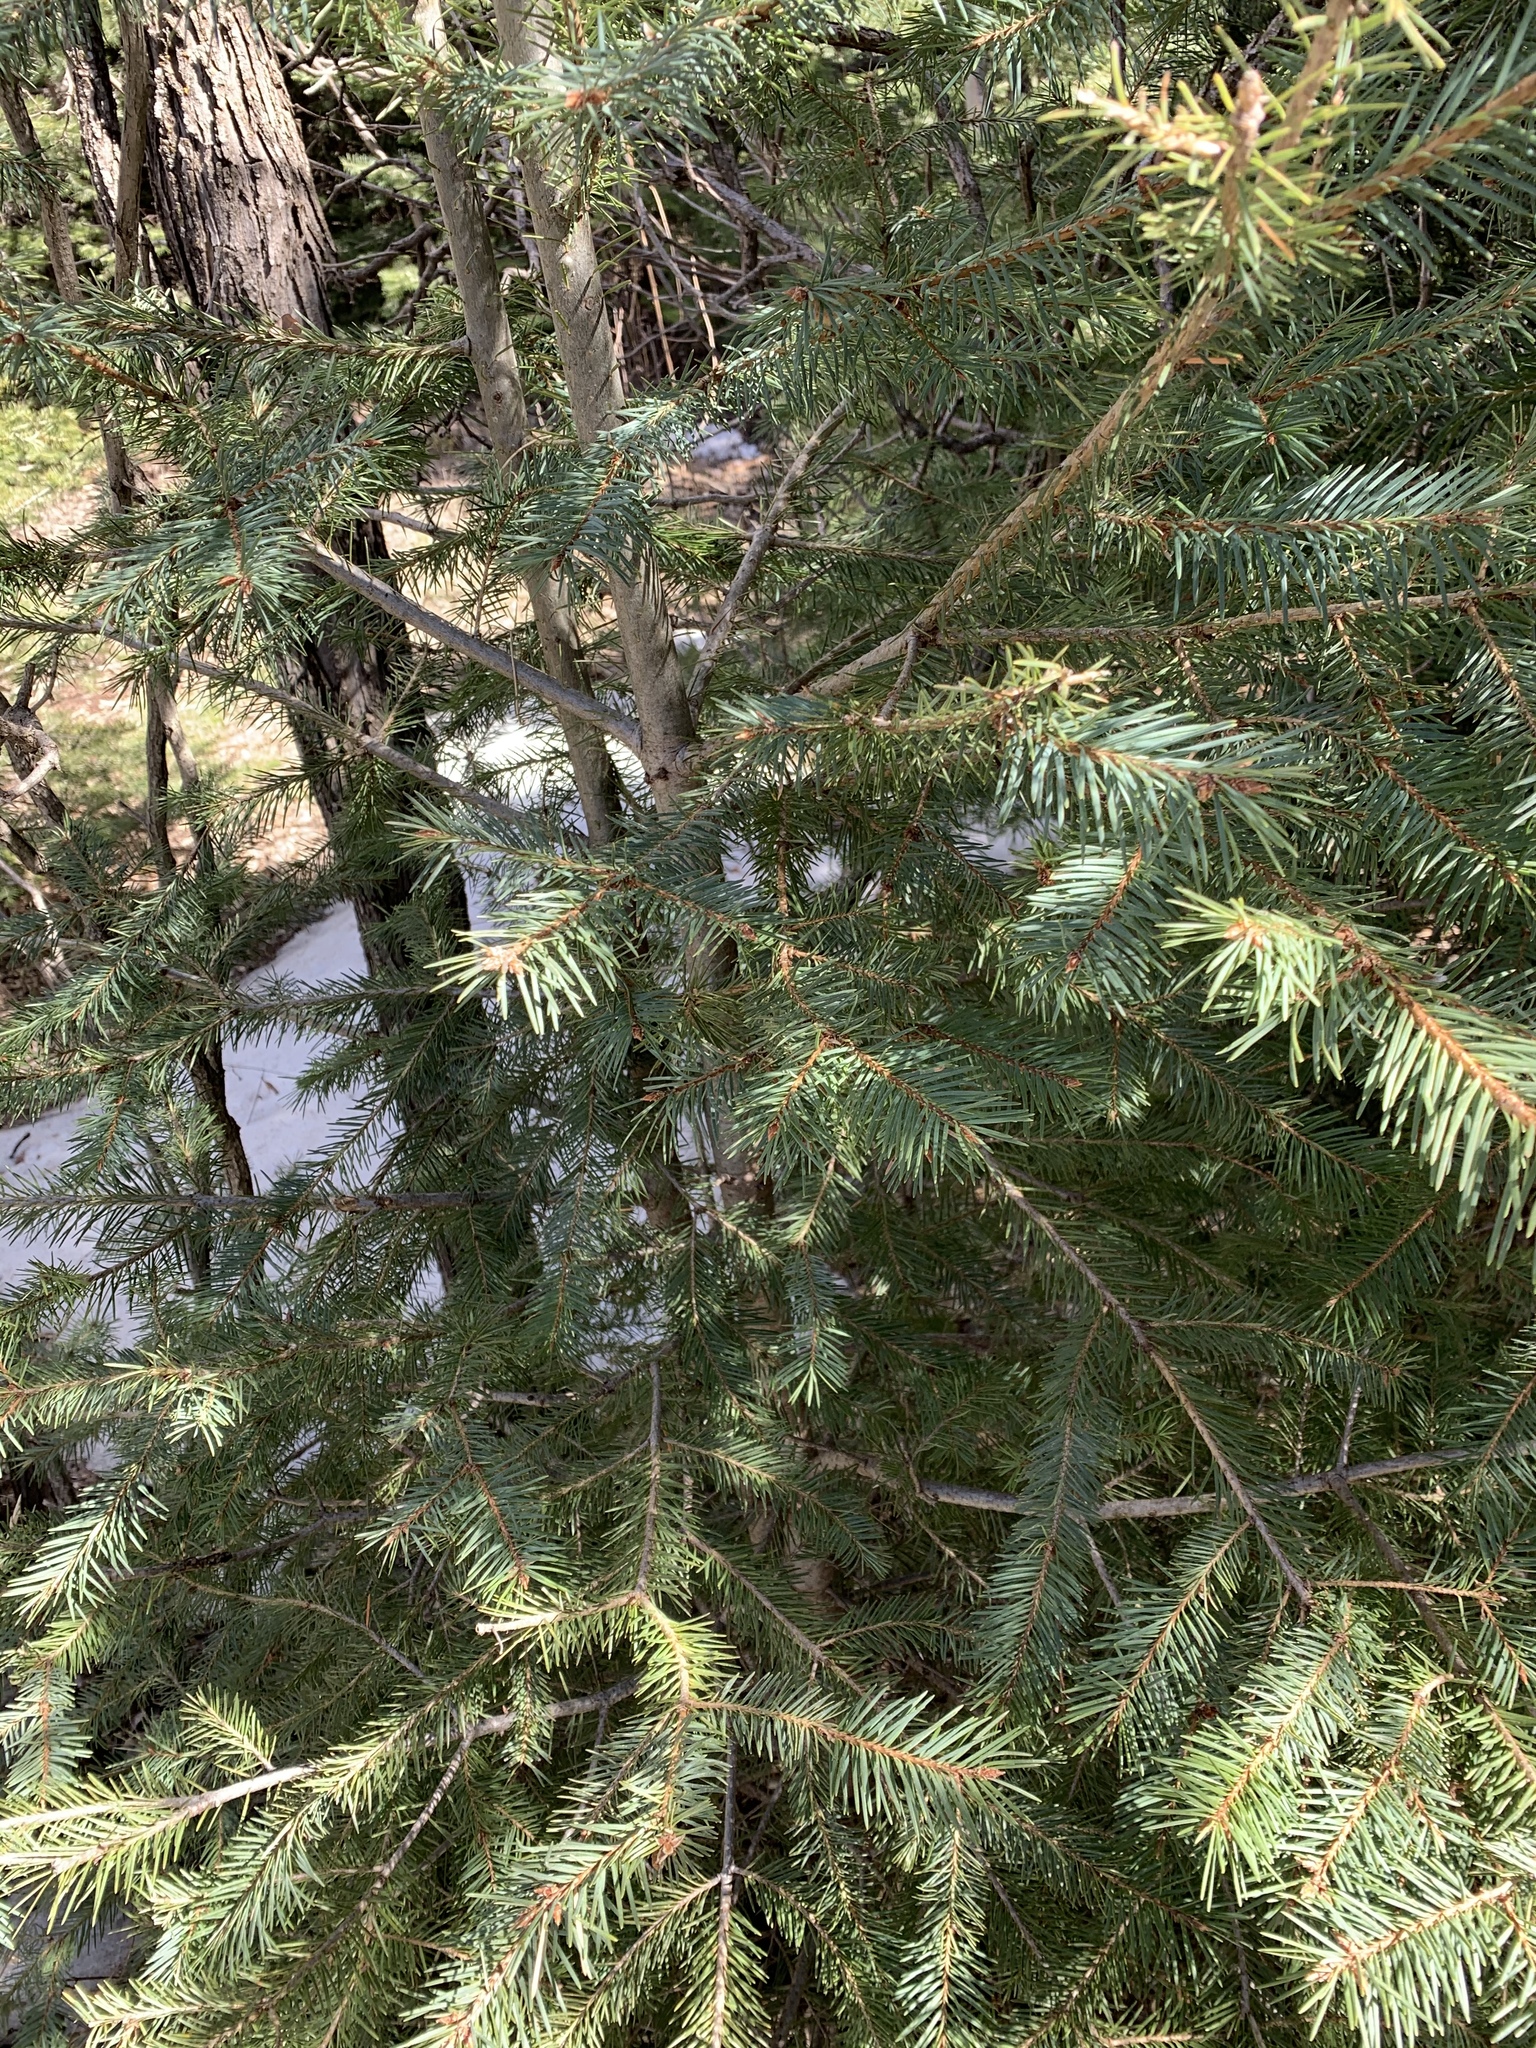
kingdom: Plantae
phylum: Tracheophyta
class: Pinopsida
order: Pinales
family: Pinaceae
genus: Pseudotsuga
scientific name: Pseudotsuga menziesii
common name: Douglas fir
